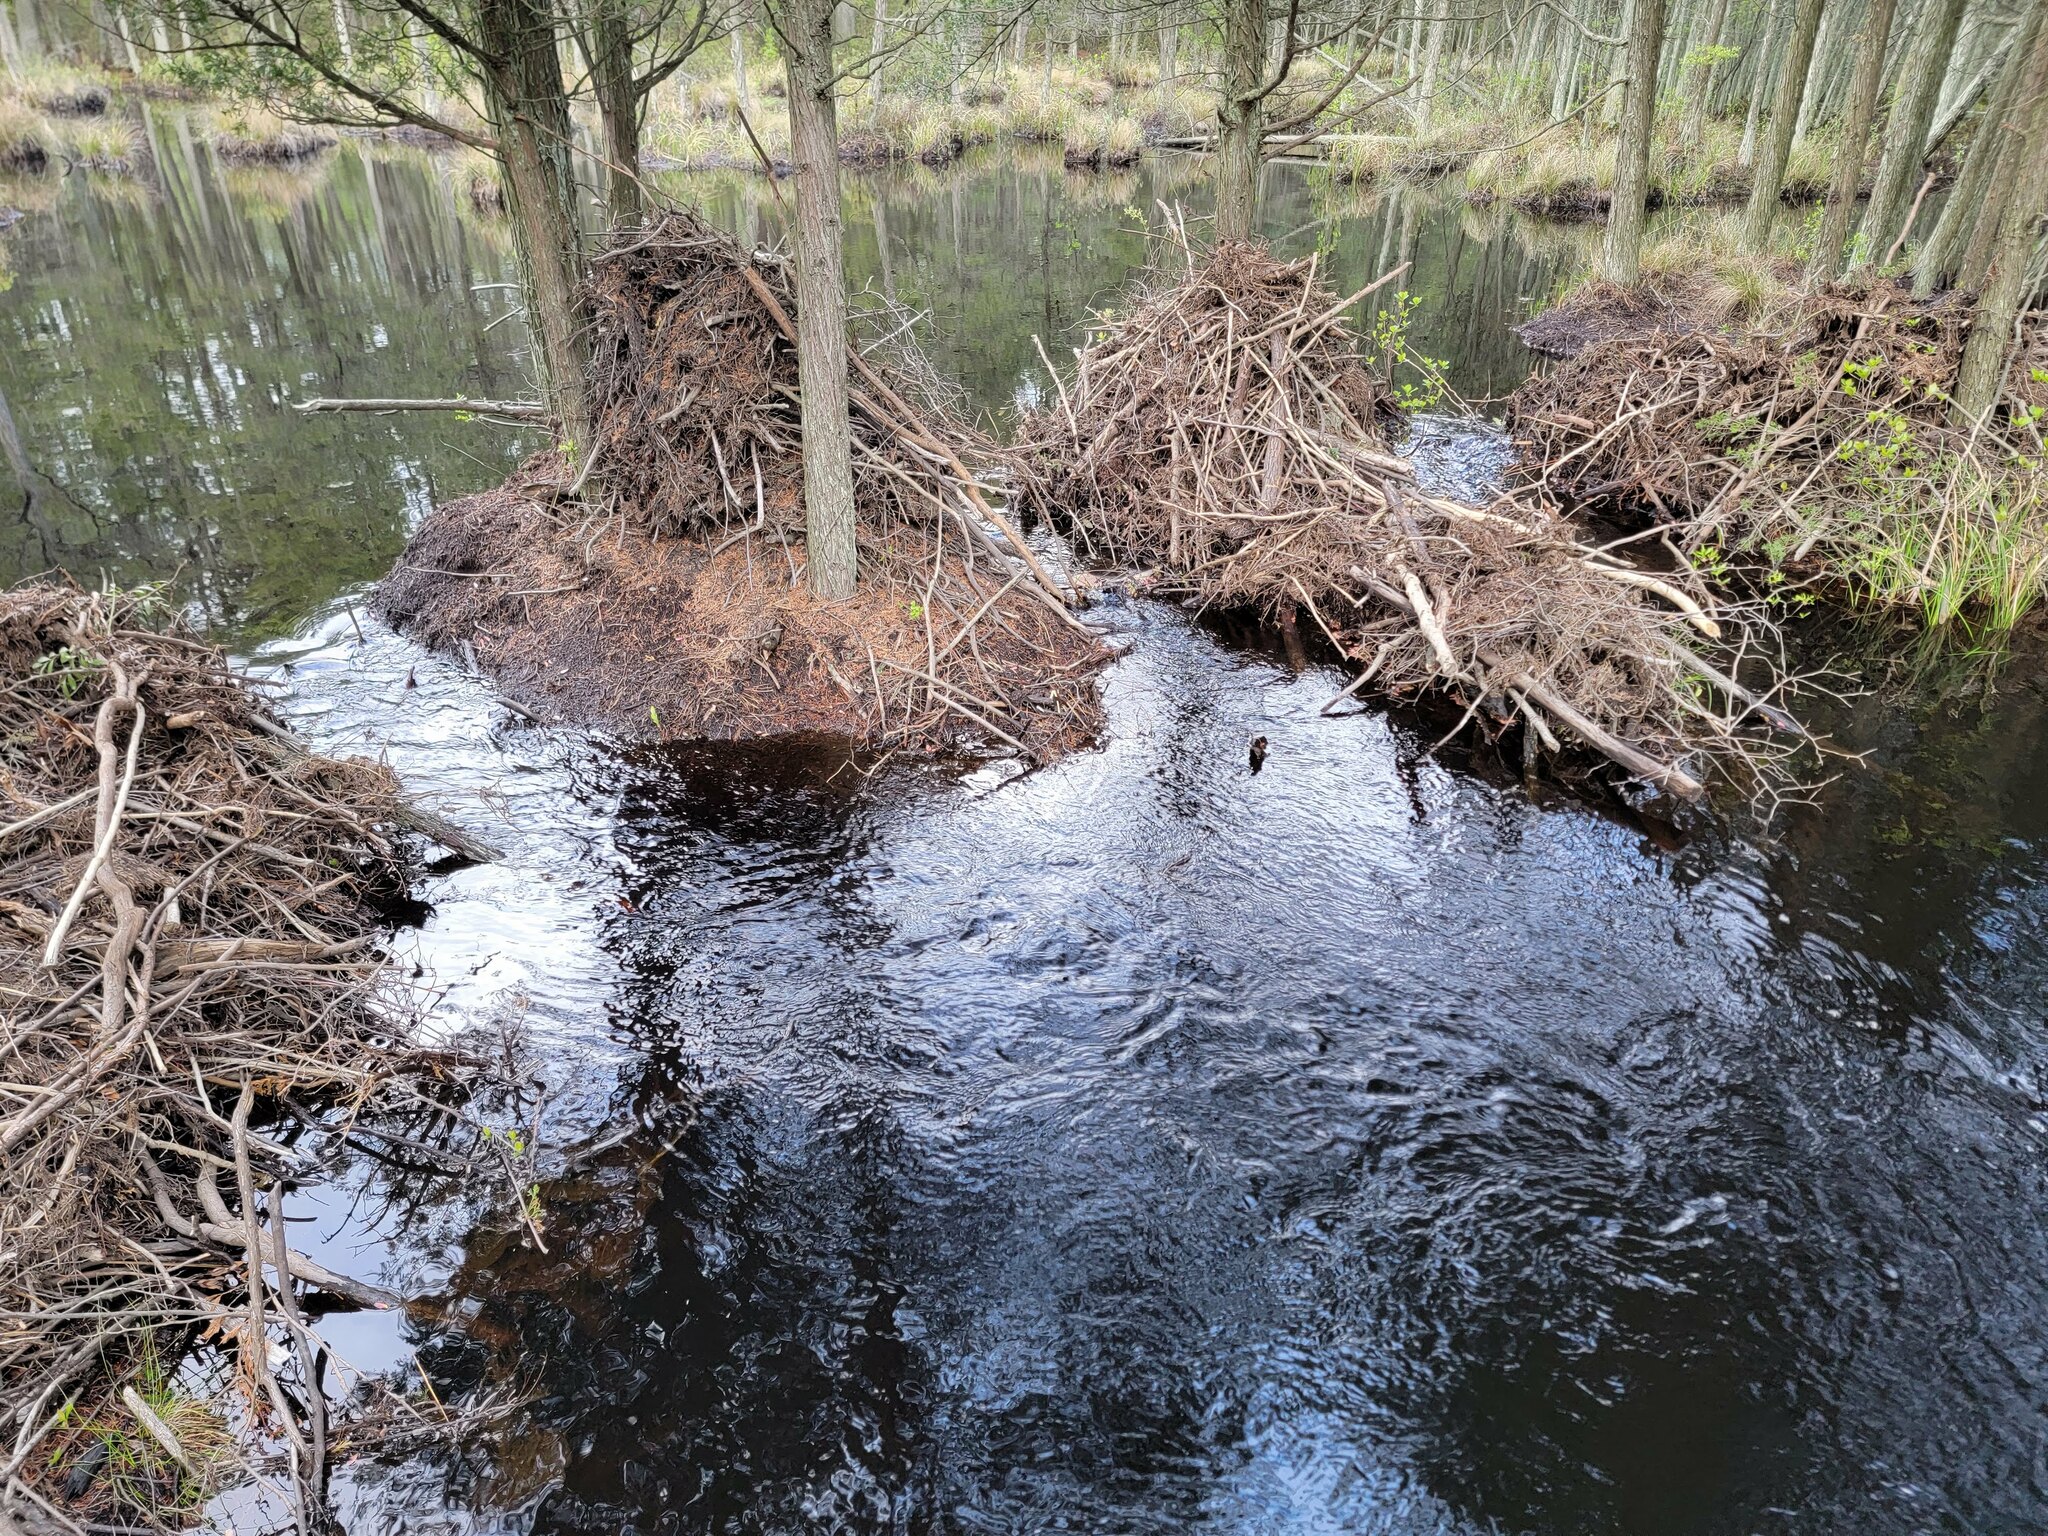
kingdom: Animalia
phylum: Chordata
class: Mammalia
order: Rodentia
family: Castoridae
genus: Castor
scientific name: Castor canadensis
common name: American beaver
